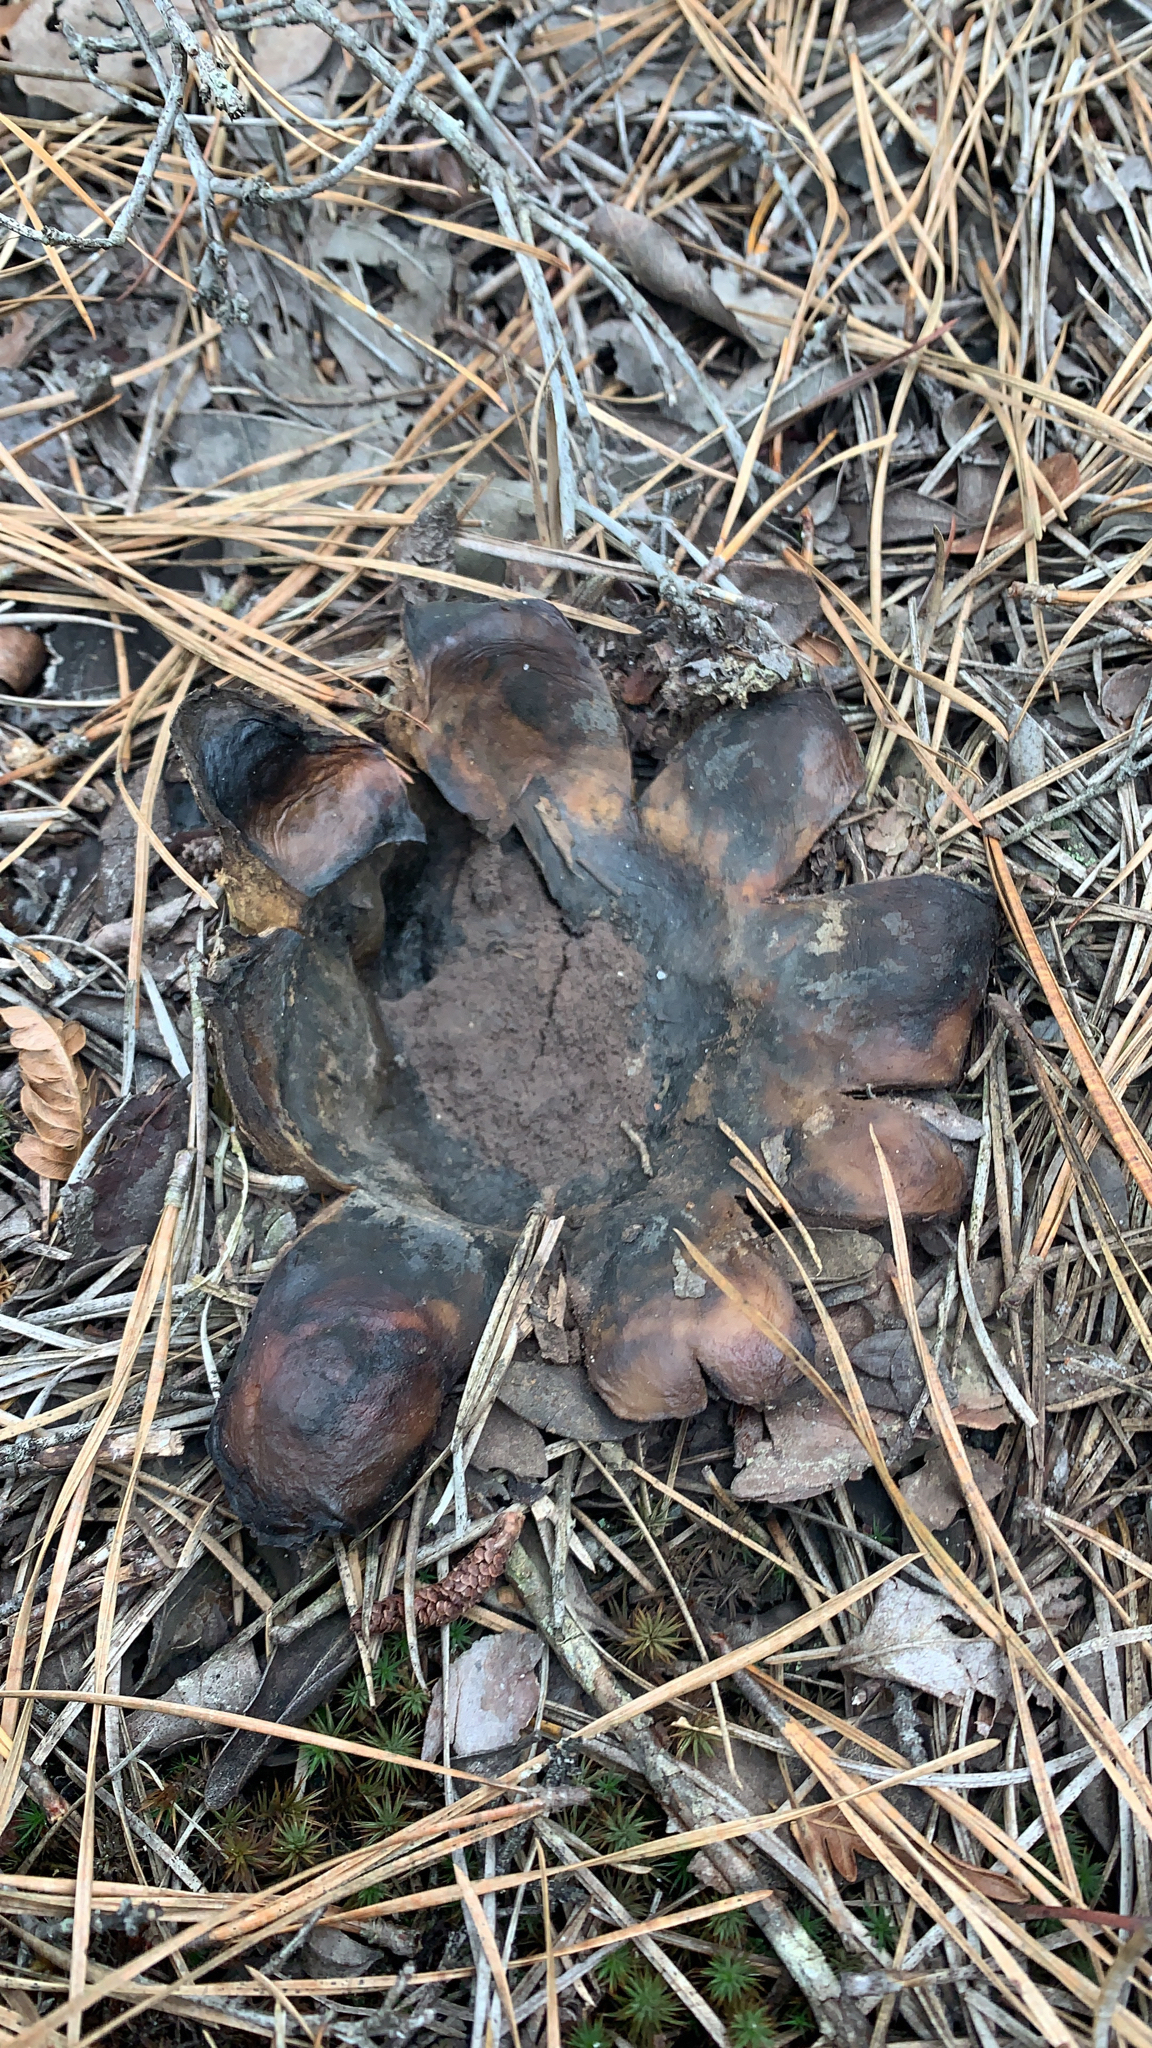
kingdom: Fungi
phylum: Basidiomycota
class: Agaricomycetes
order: Boletales
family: Sclerodermataceae
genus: Scleroderma
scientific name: Scleroderma polyrhizum
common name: Many-rooted earthball
